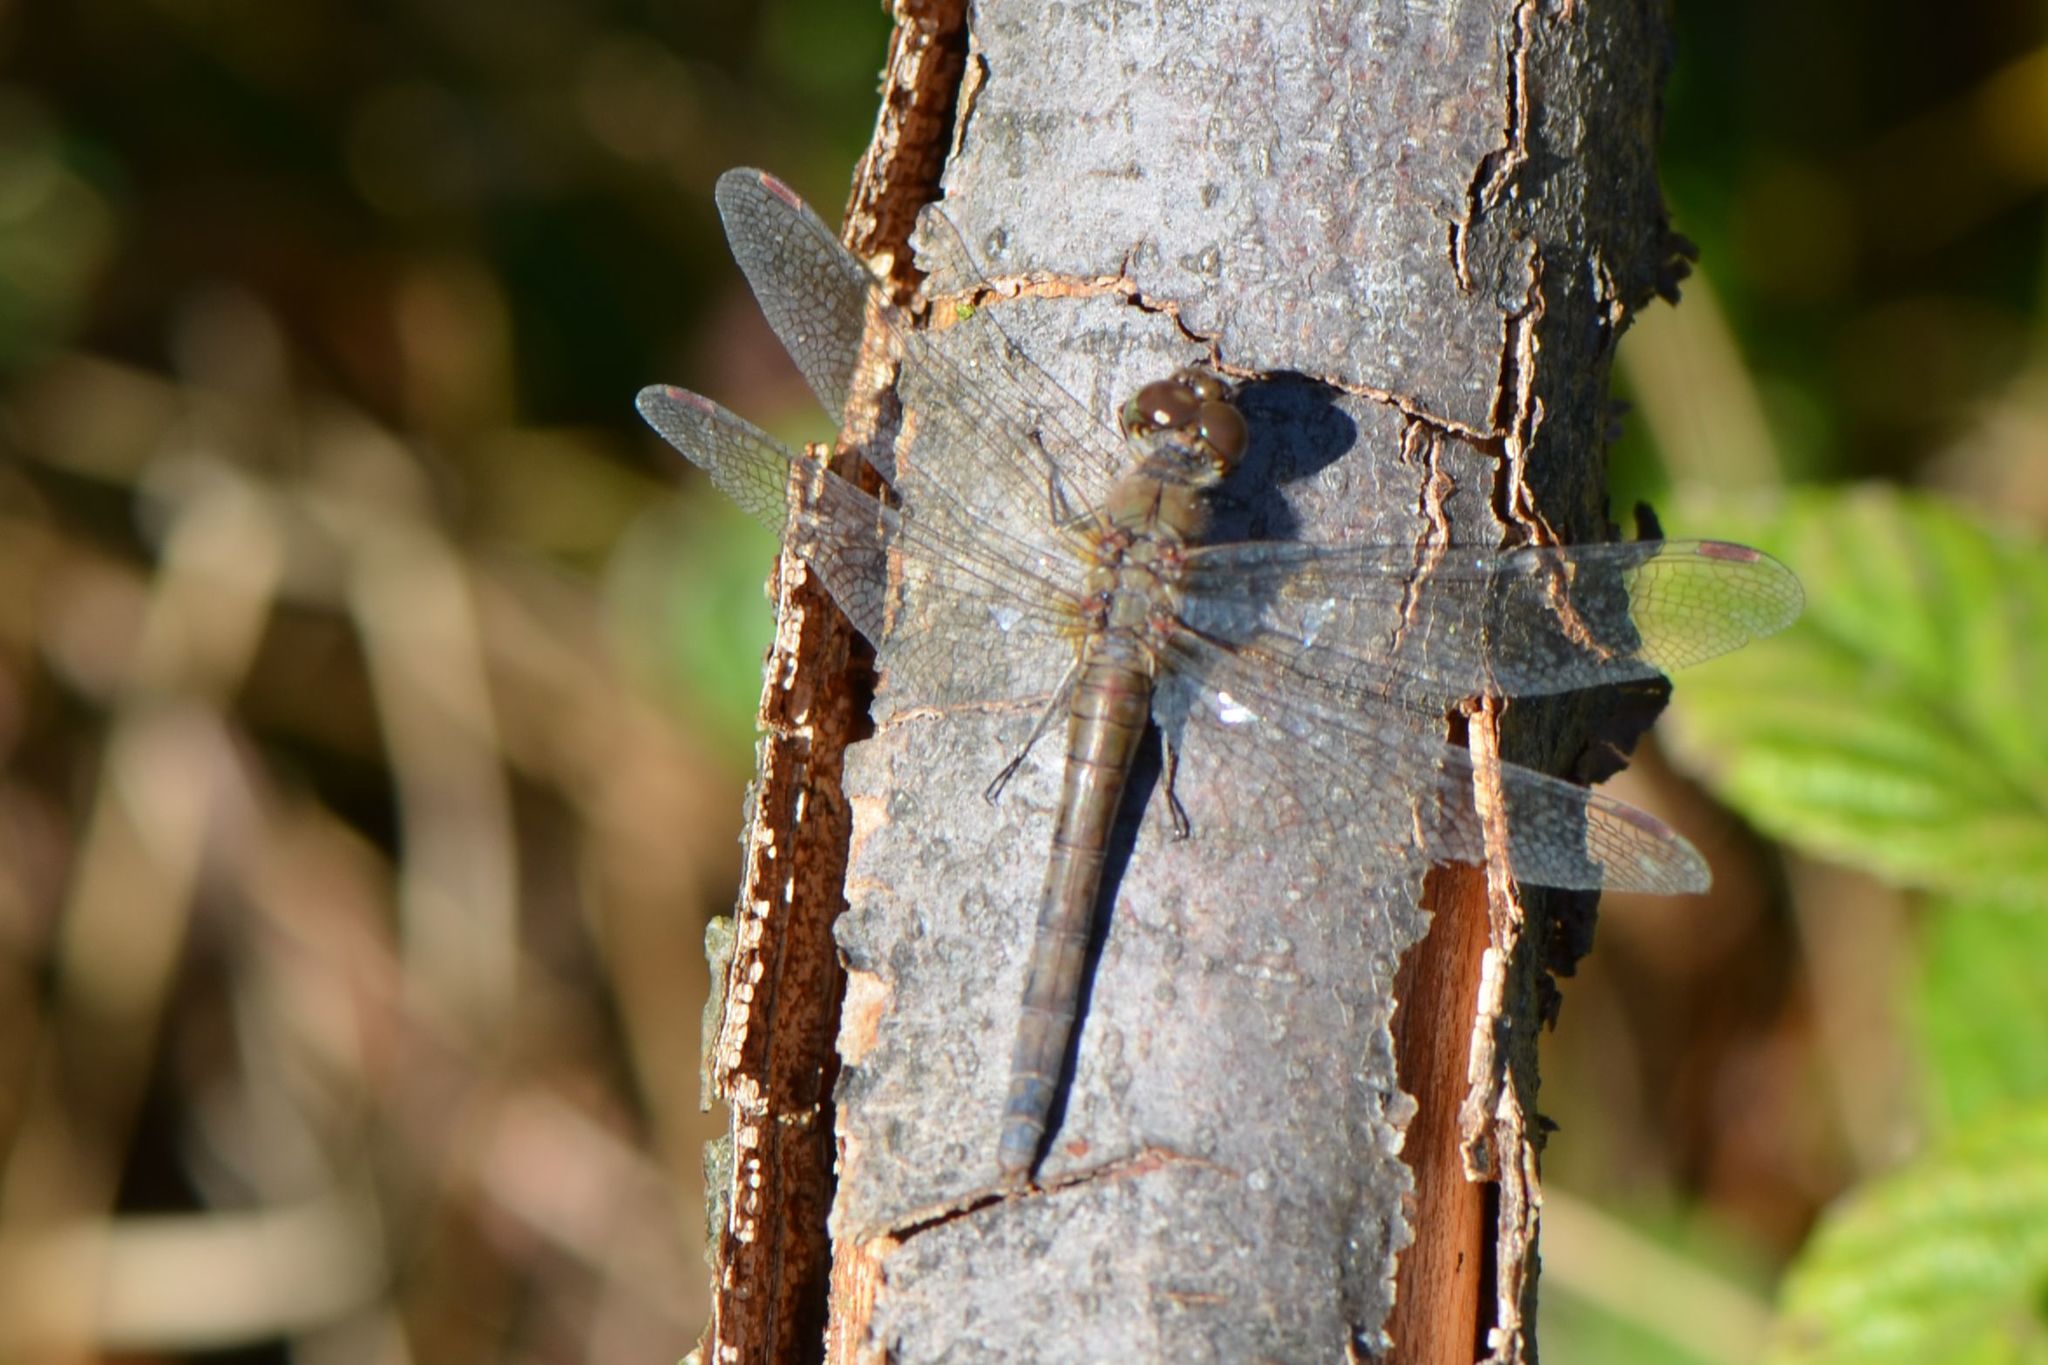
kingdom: Animalia
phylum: Arthropoda
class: Insecta
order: Odonata
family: Libellulidae
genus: Sympetrum
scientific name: Sympetrum striolatum
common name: Common darter
